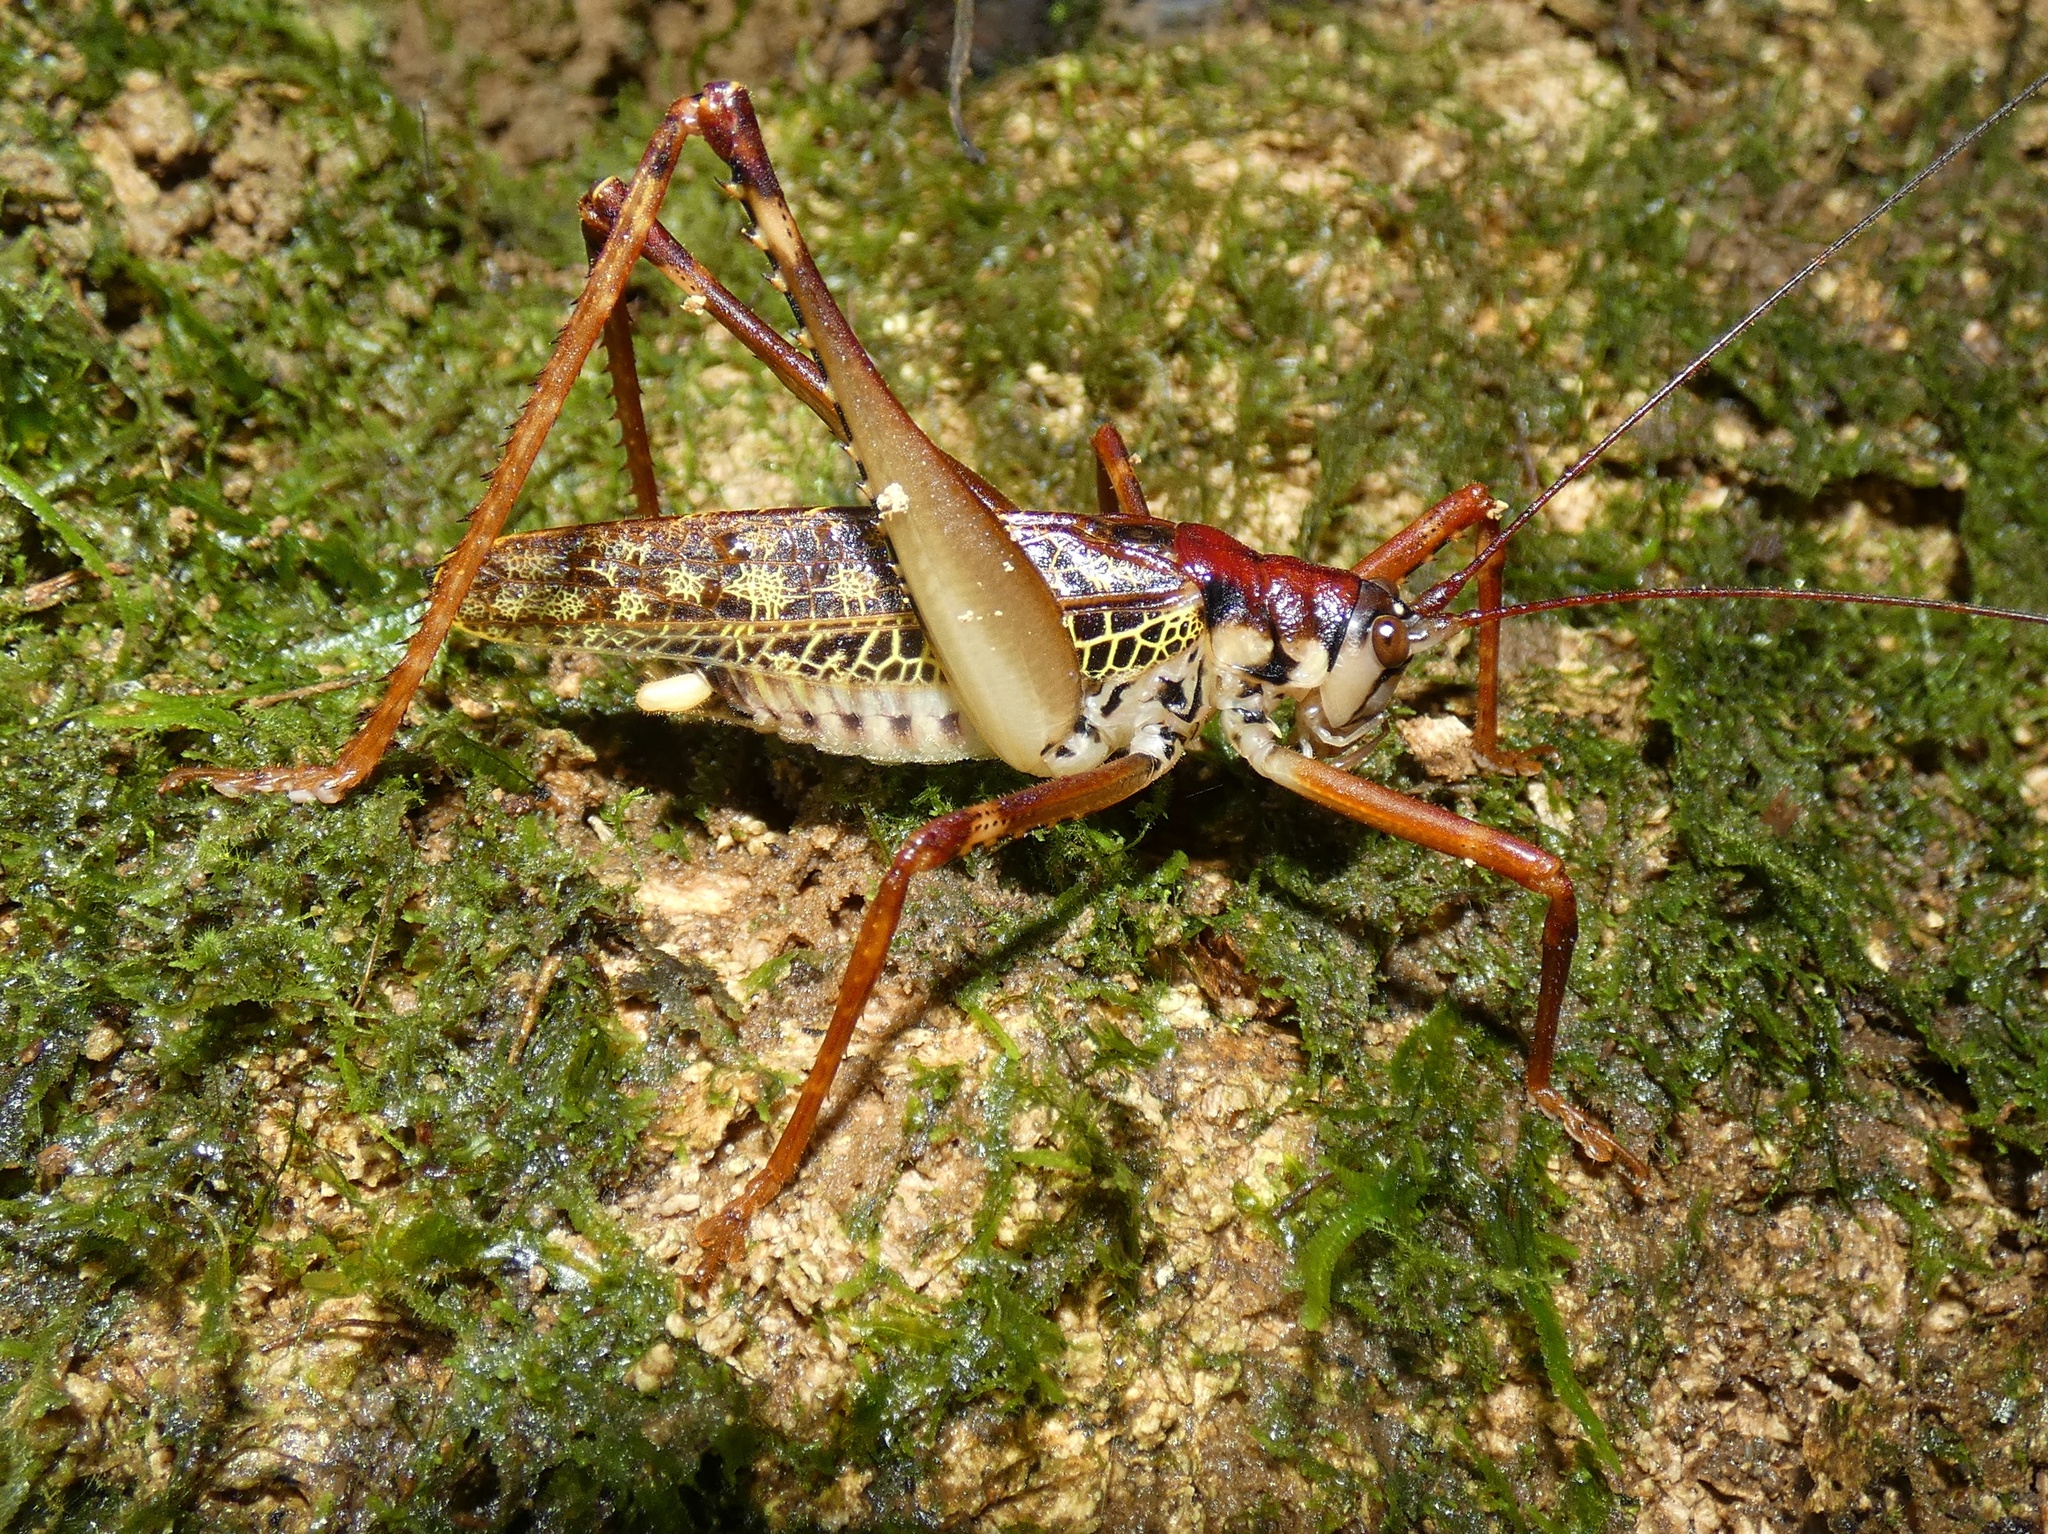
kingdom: Animalia
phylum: Arthropoda
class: Insecta
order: Orthoptera
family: Tettigoniidae
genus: Sterphoter
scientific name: Sterphoter limatus
